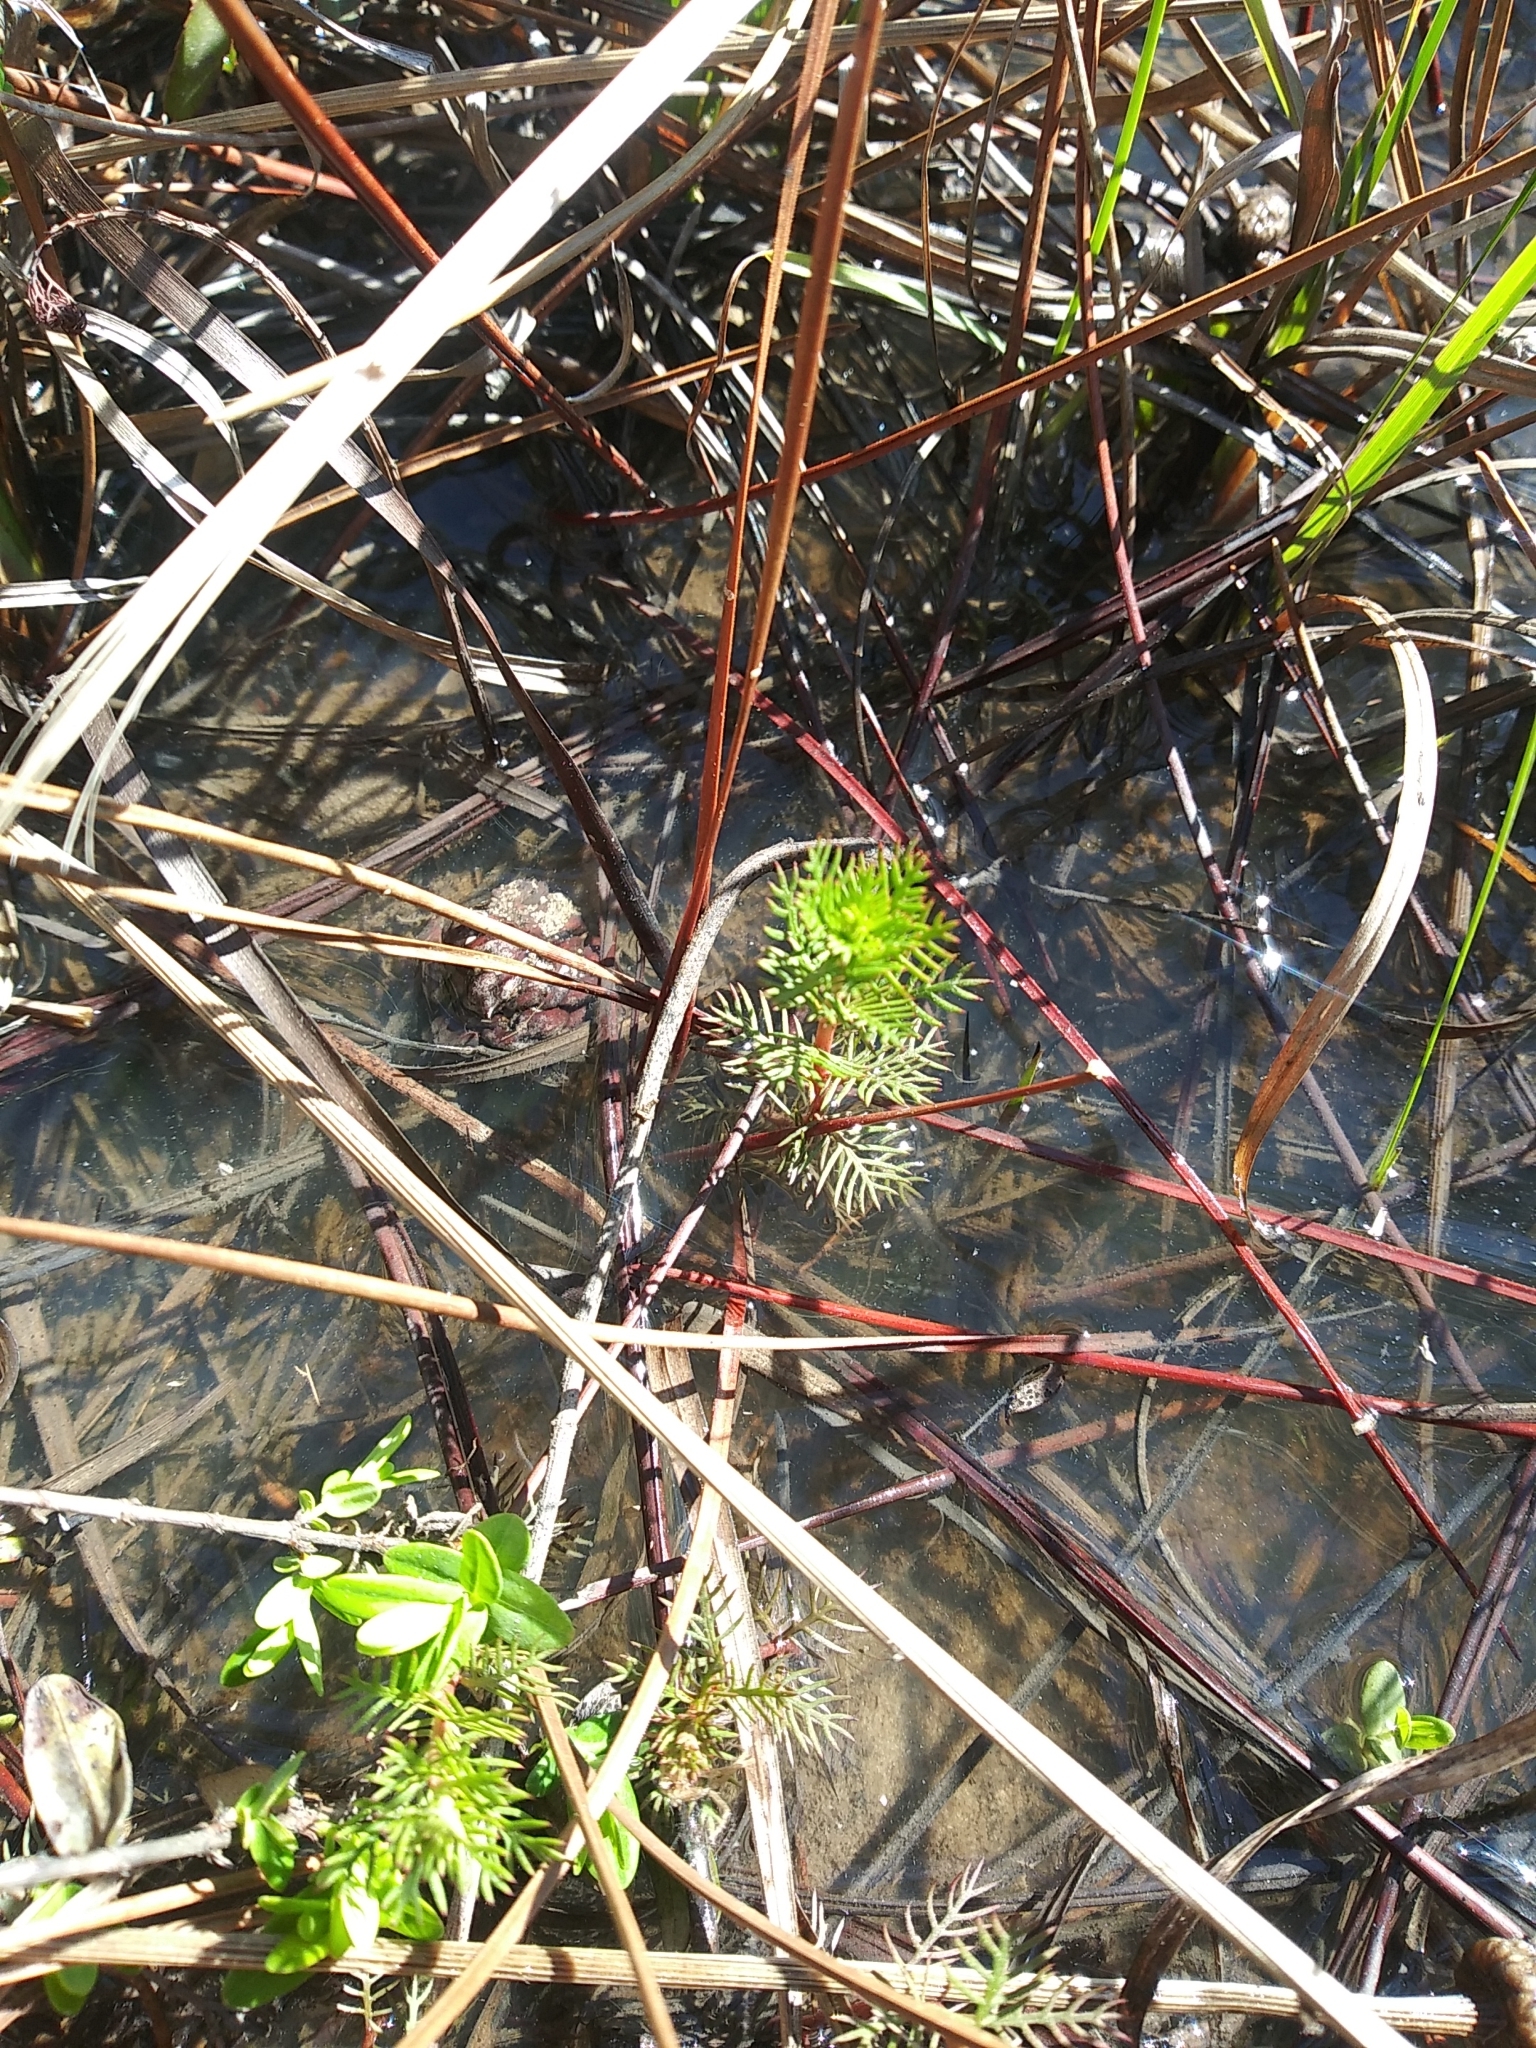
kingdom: Plantae
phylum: Tracheophyta
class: Magnoliopsida
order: Saxifragales
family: Haloragaceae
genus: Proserpinaca
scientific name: Proserpinaca pectinata
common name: Comb-leaved mermaidweed
